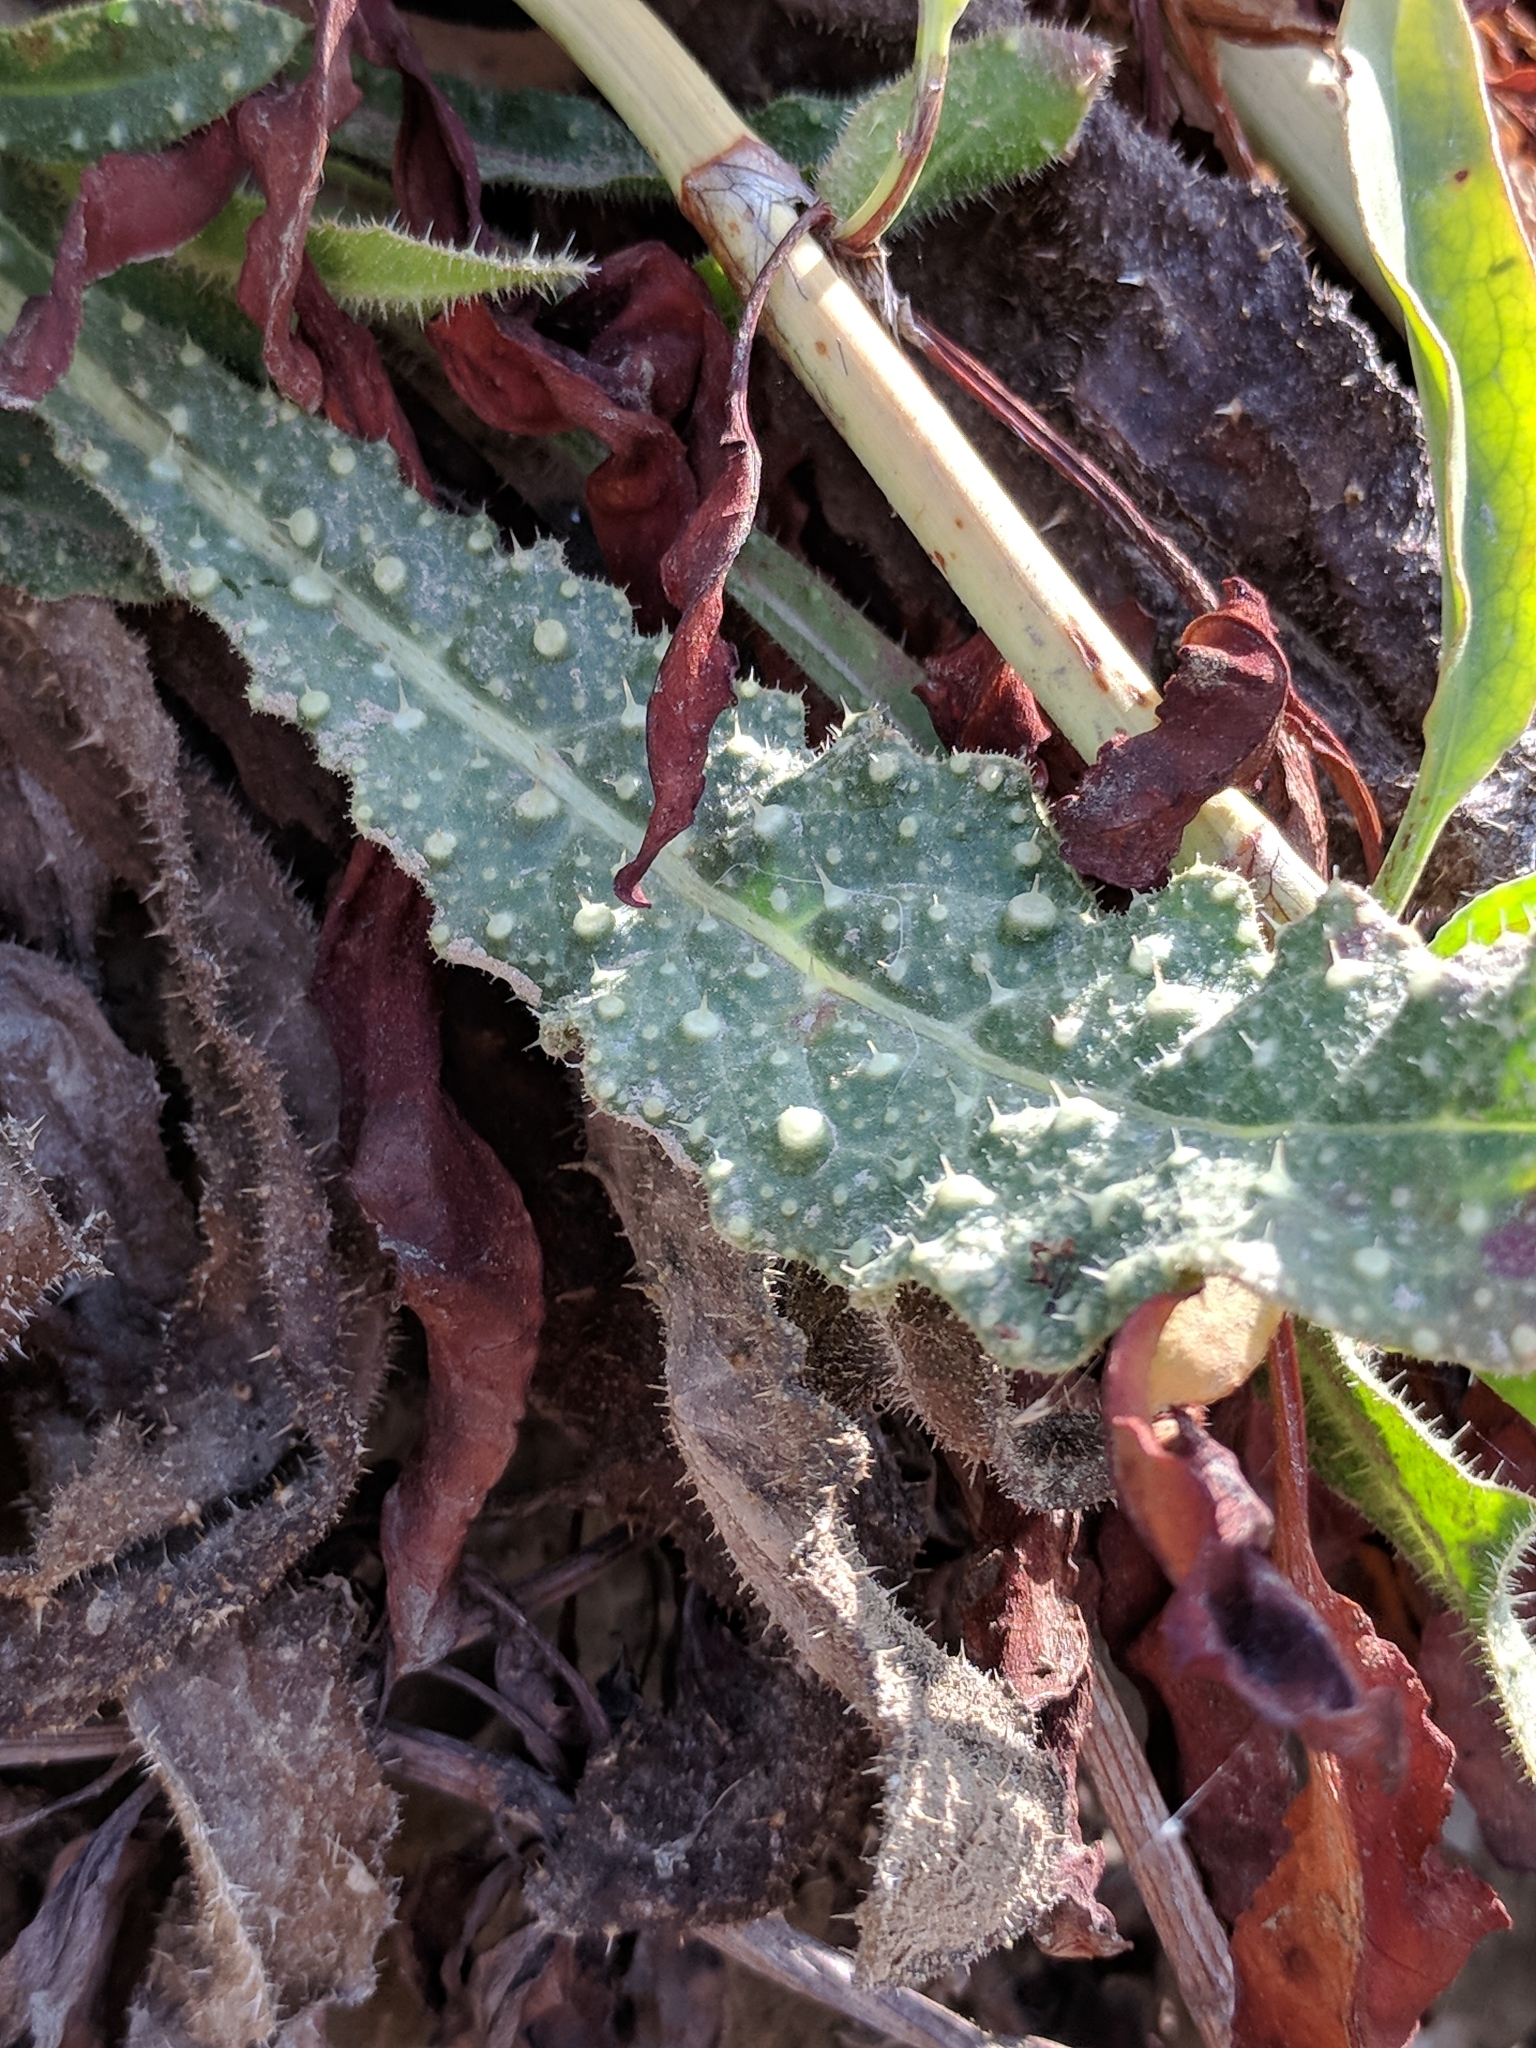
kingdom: Plantae
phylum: Tracheophyta
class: Magnoliopsida
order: Asterales
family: Asteraceae
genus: Helminthotheca
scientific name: Helminthotheca echioides
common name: Ox-tongue
